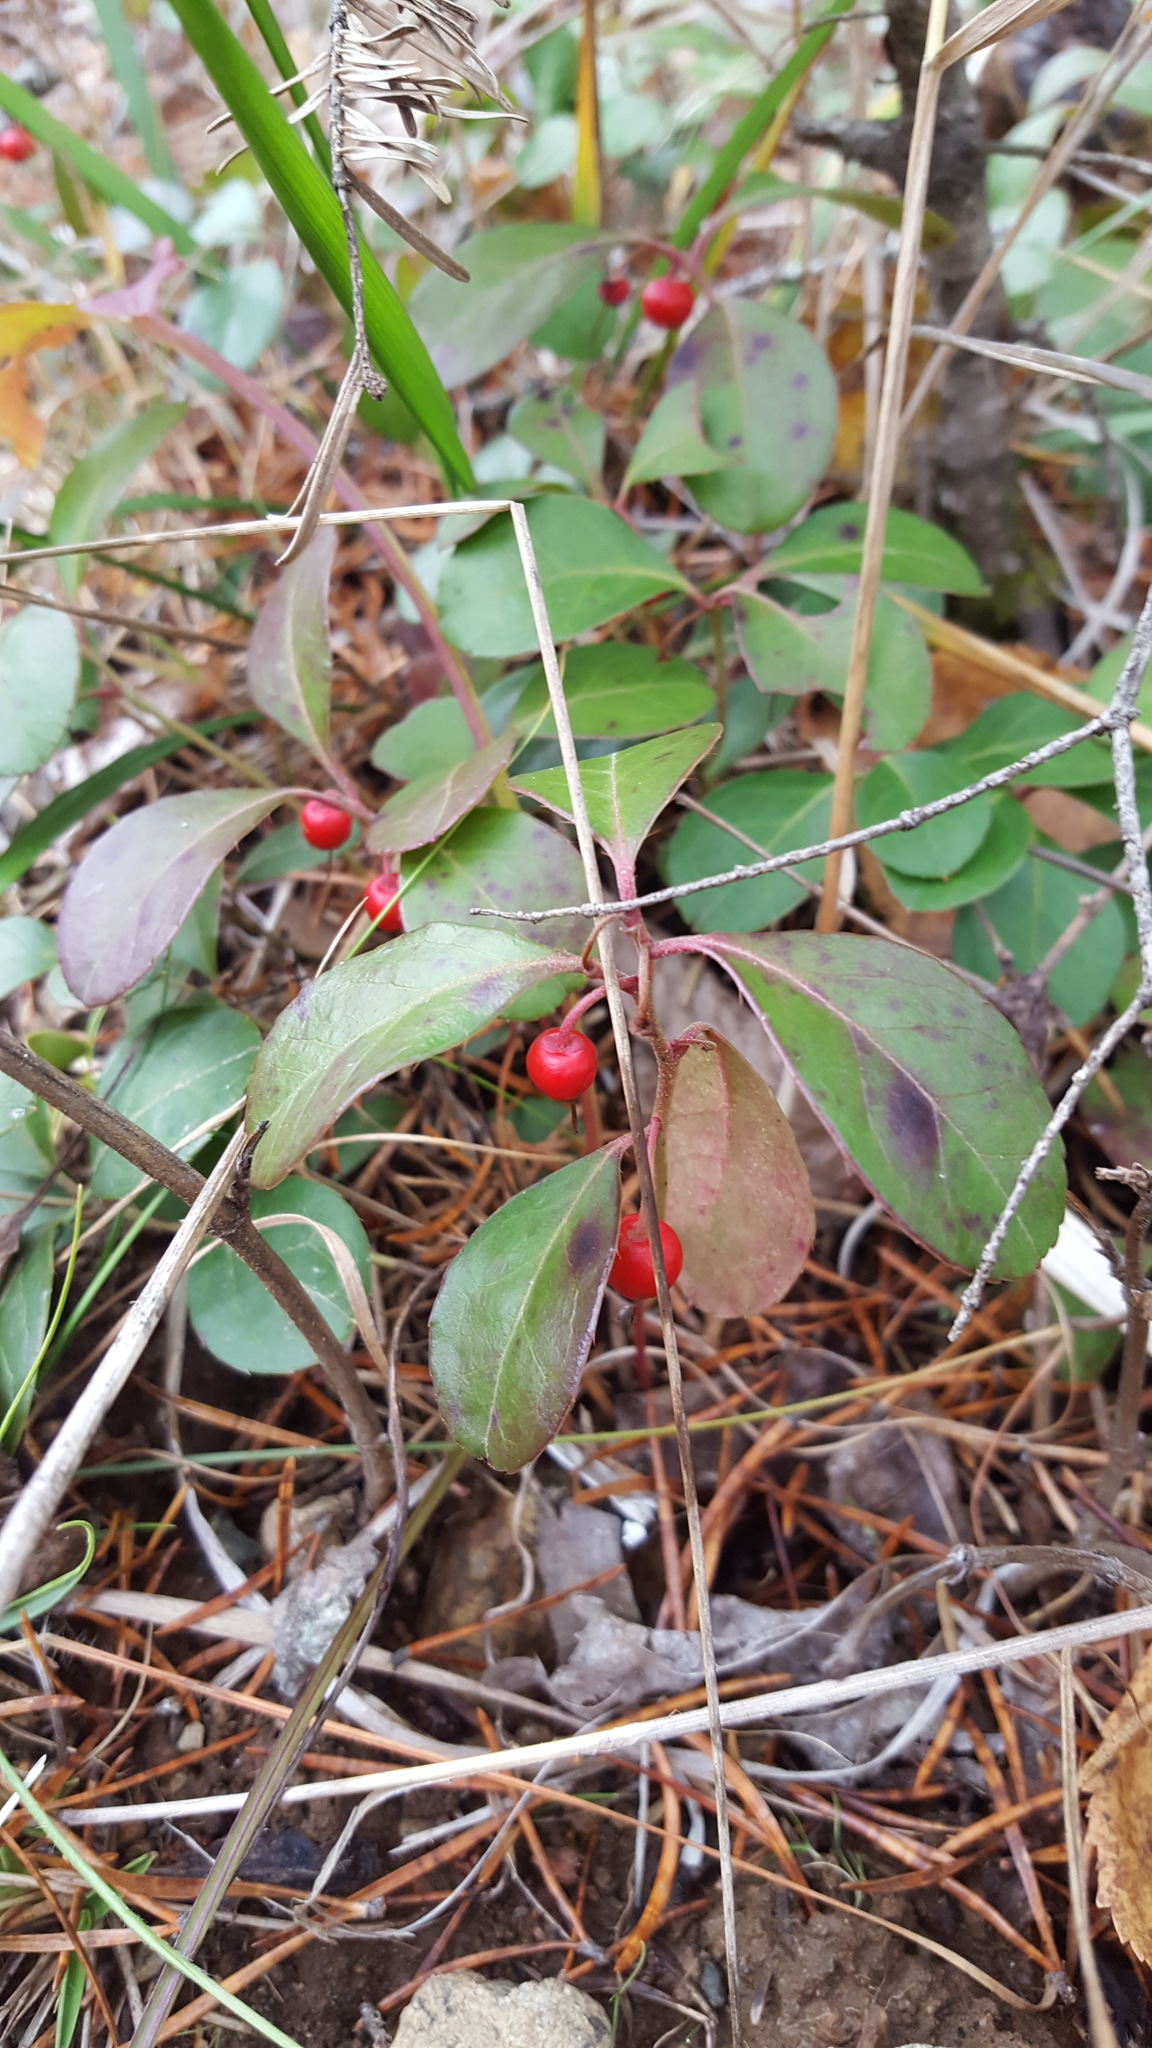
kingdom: Plantae
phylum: Tracheophyta
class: Magnoliopsida
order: Ericales
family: Ericaceae
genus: Gaultheria
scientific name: Gaultheria procumbens
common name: Checkerberry
